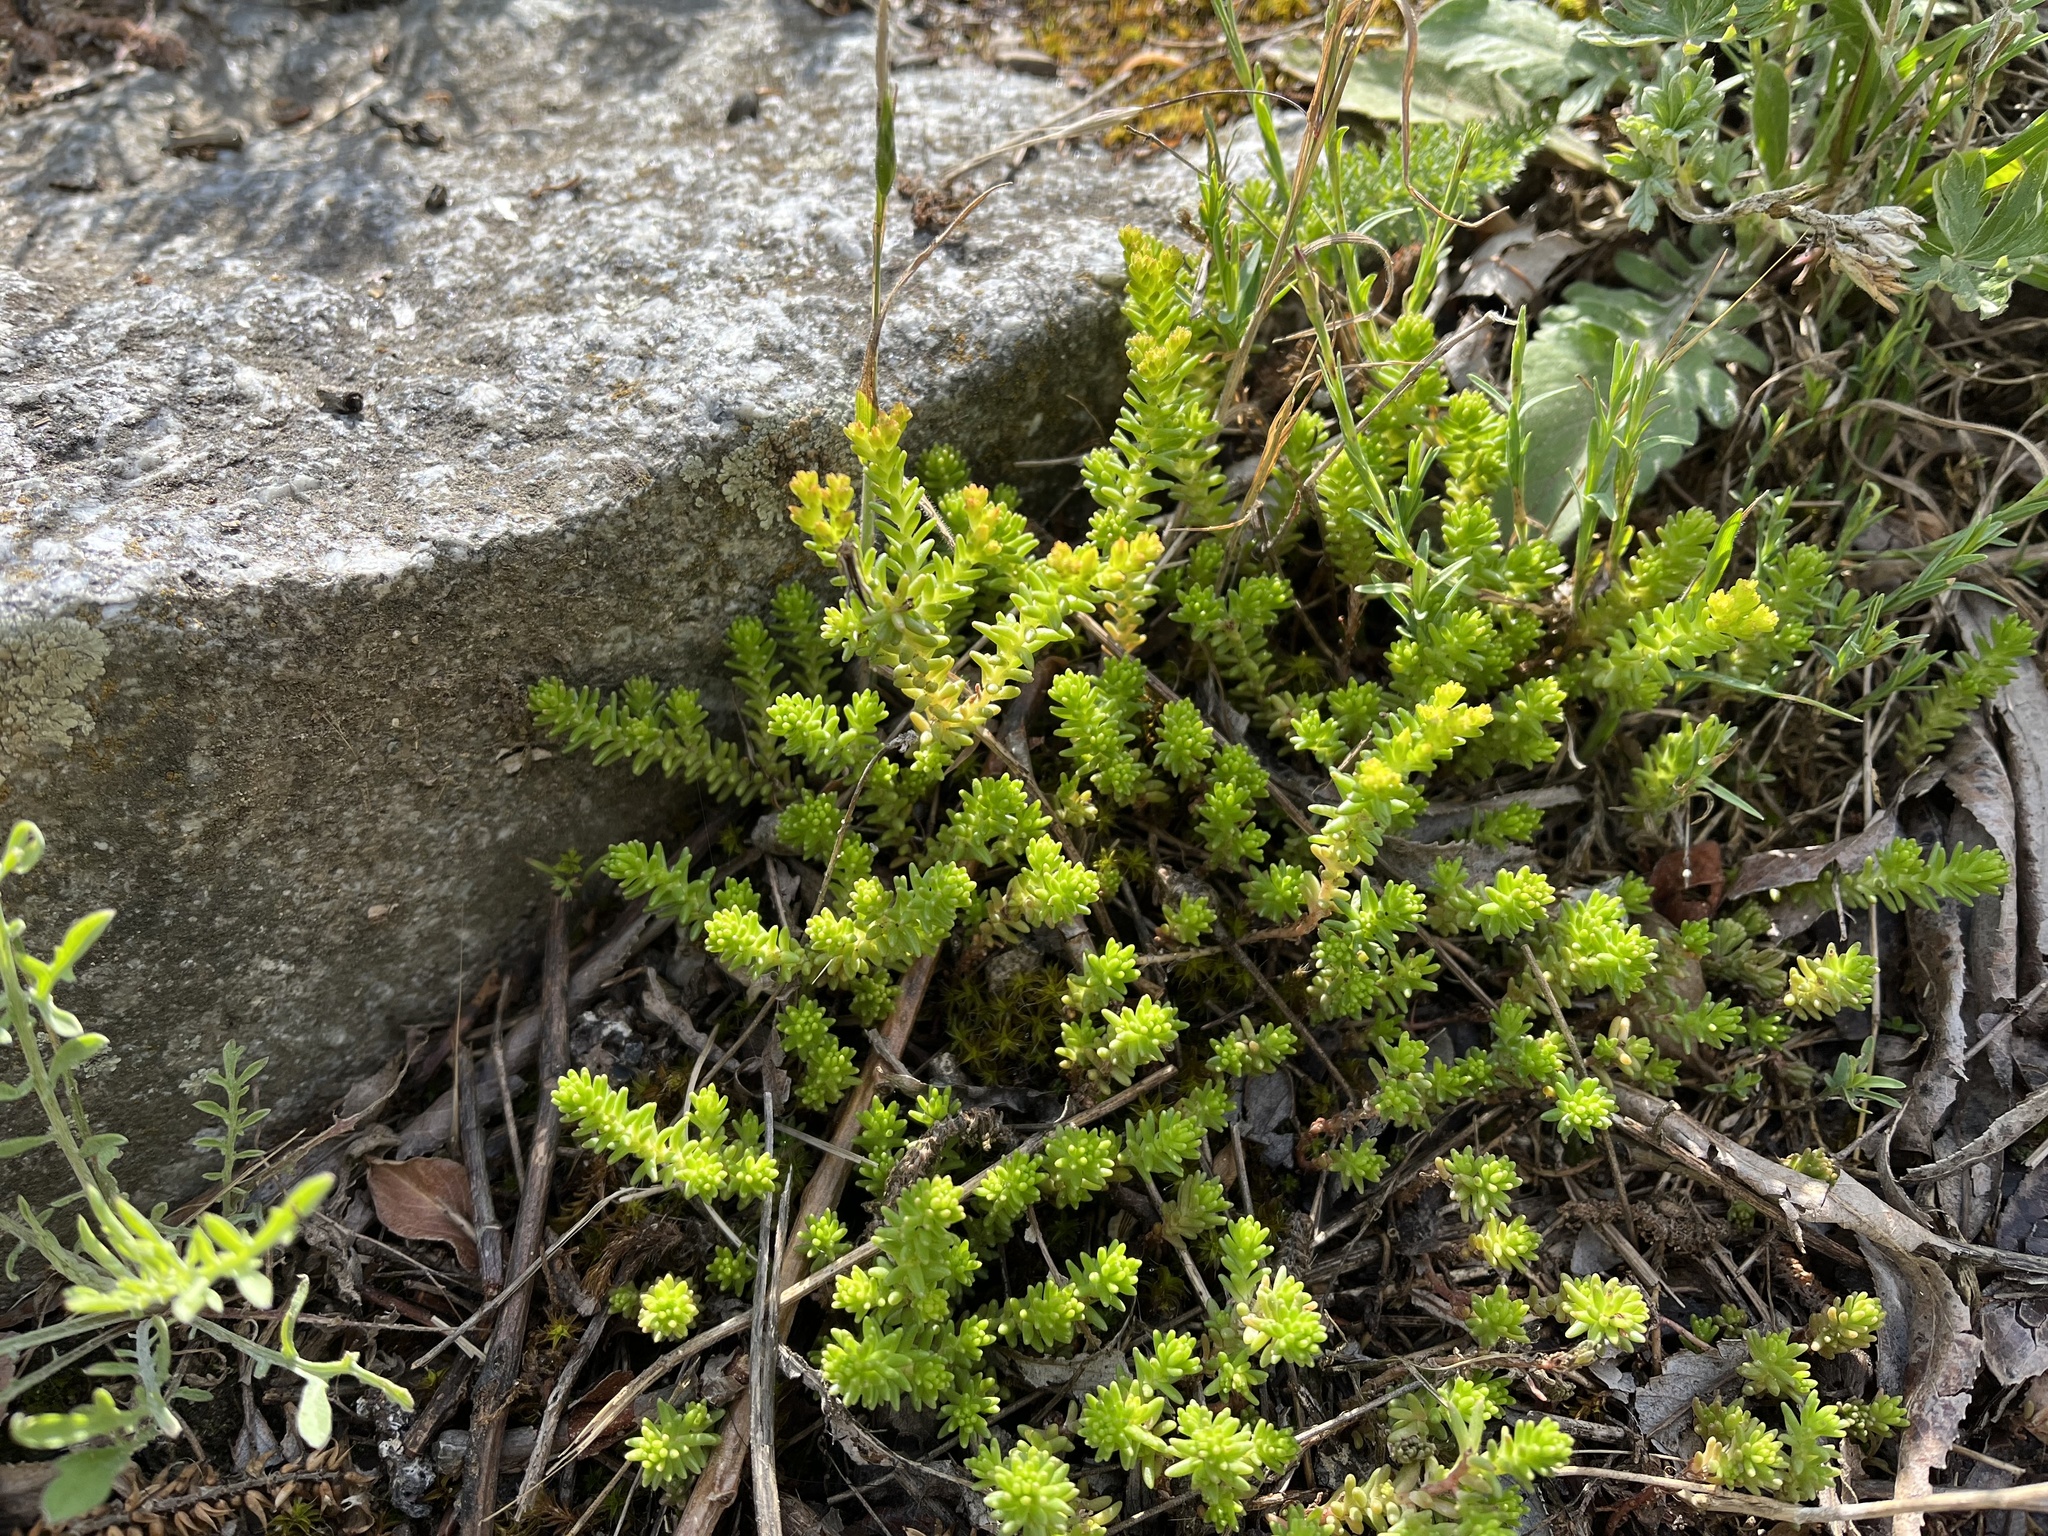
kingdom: Plantae
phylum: Tracheophyta
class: Magnoliopsida
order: Saxifragales
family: Crassulaceae
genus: Sedum
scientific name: Sedum sexangulare
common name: Tasteless stonecrop
